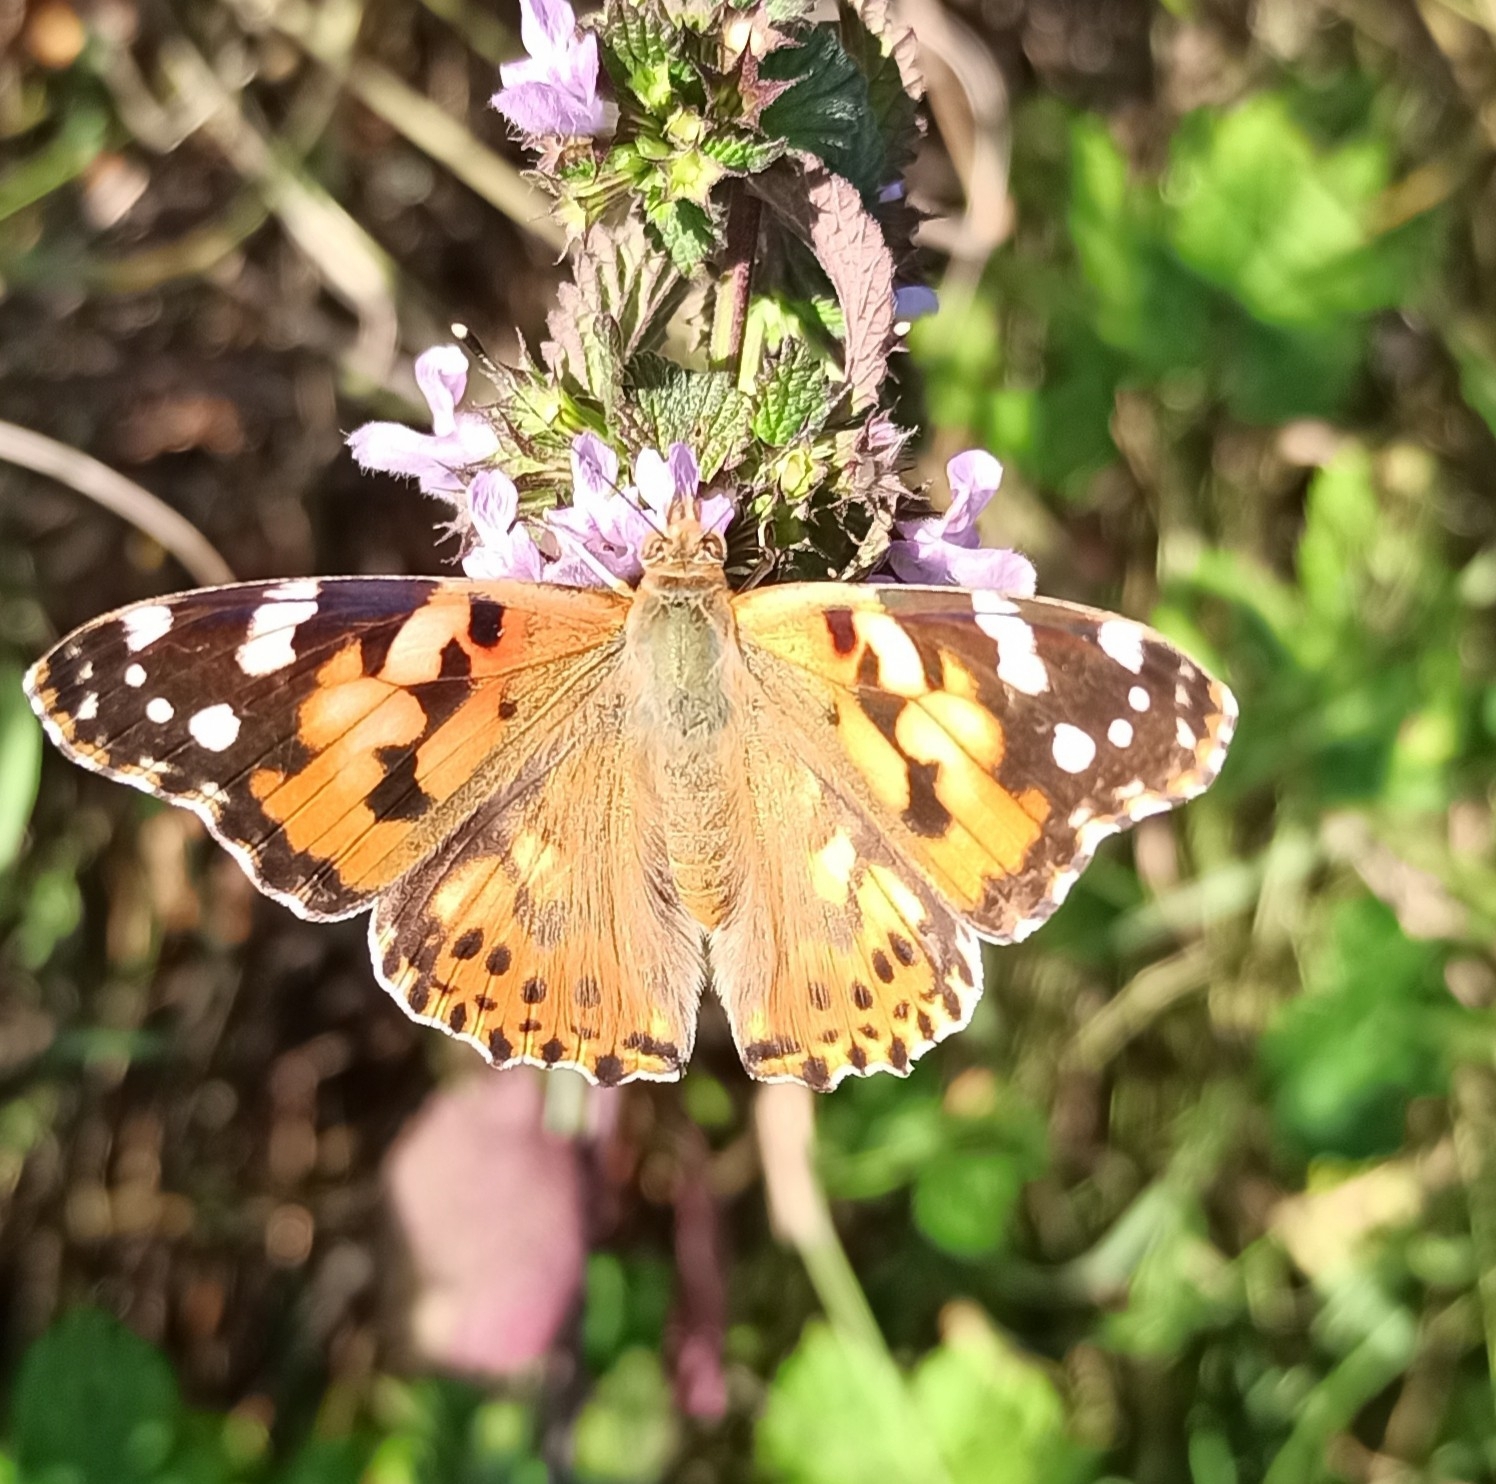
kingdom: Animalia
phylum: Arthropoda
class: Insecta
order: Lepidoptera
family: Nymphalidae
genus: Vanessa
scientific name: Vanessa cardui
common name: Painted lady
